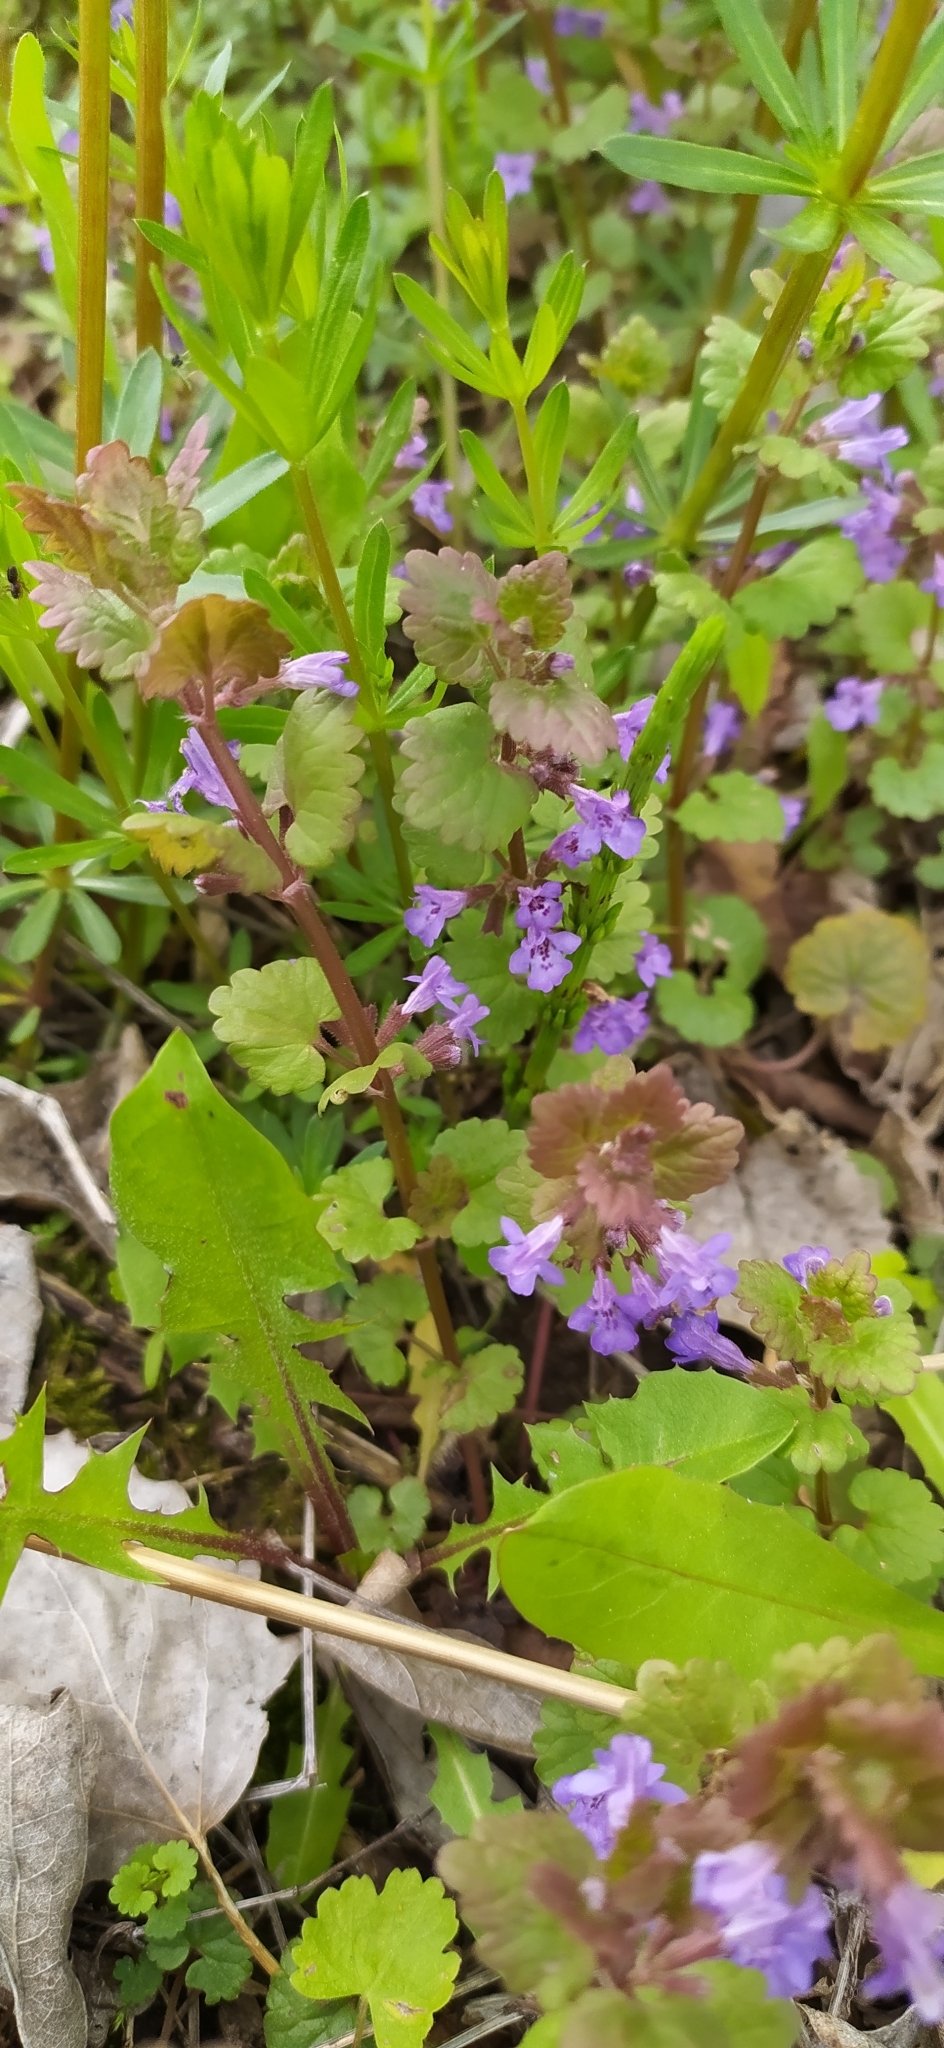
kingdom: Plantae
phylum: Tracheophyta
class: Magnoliopsida
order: Lamiales
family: Lamiaceae
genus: Glechoma
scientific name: Glechoma hederacea
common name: Ground ivy
